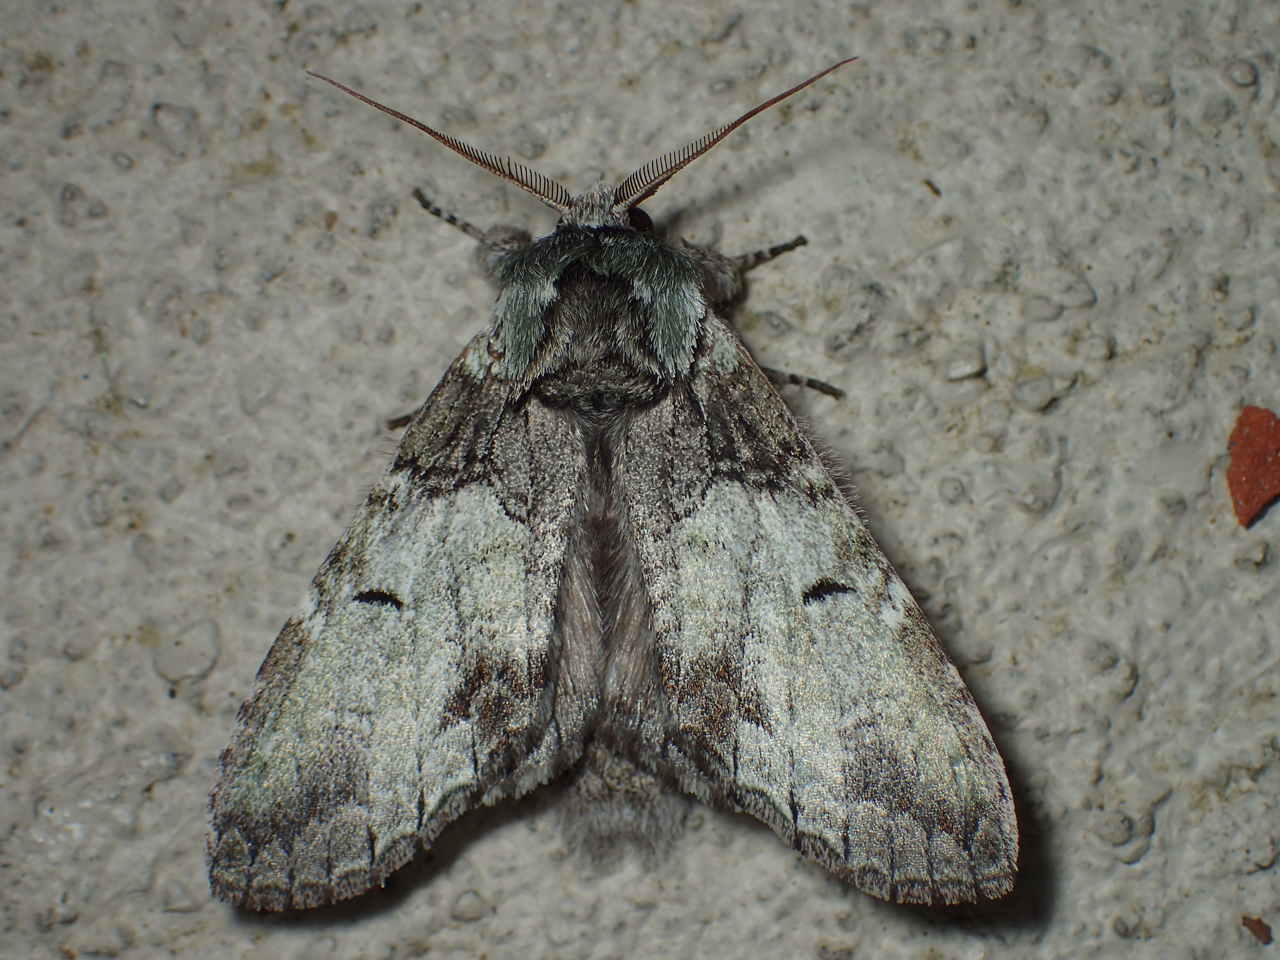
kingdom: Animalia
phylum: Arthropoda
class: Insecta
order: Lepidoptera
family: Notodontidae
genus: Macrurocampa
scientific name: Macrurocampa marthesia
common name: Mottled prominent
